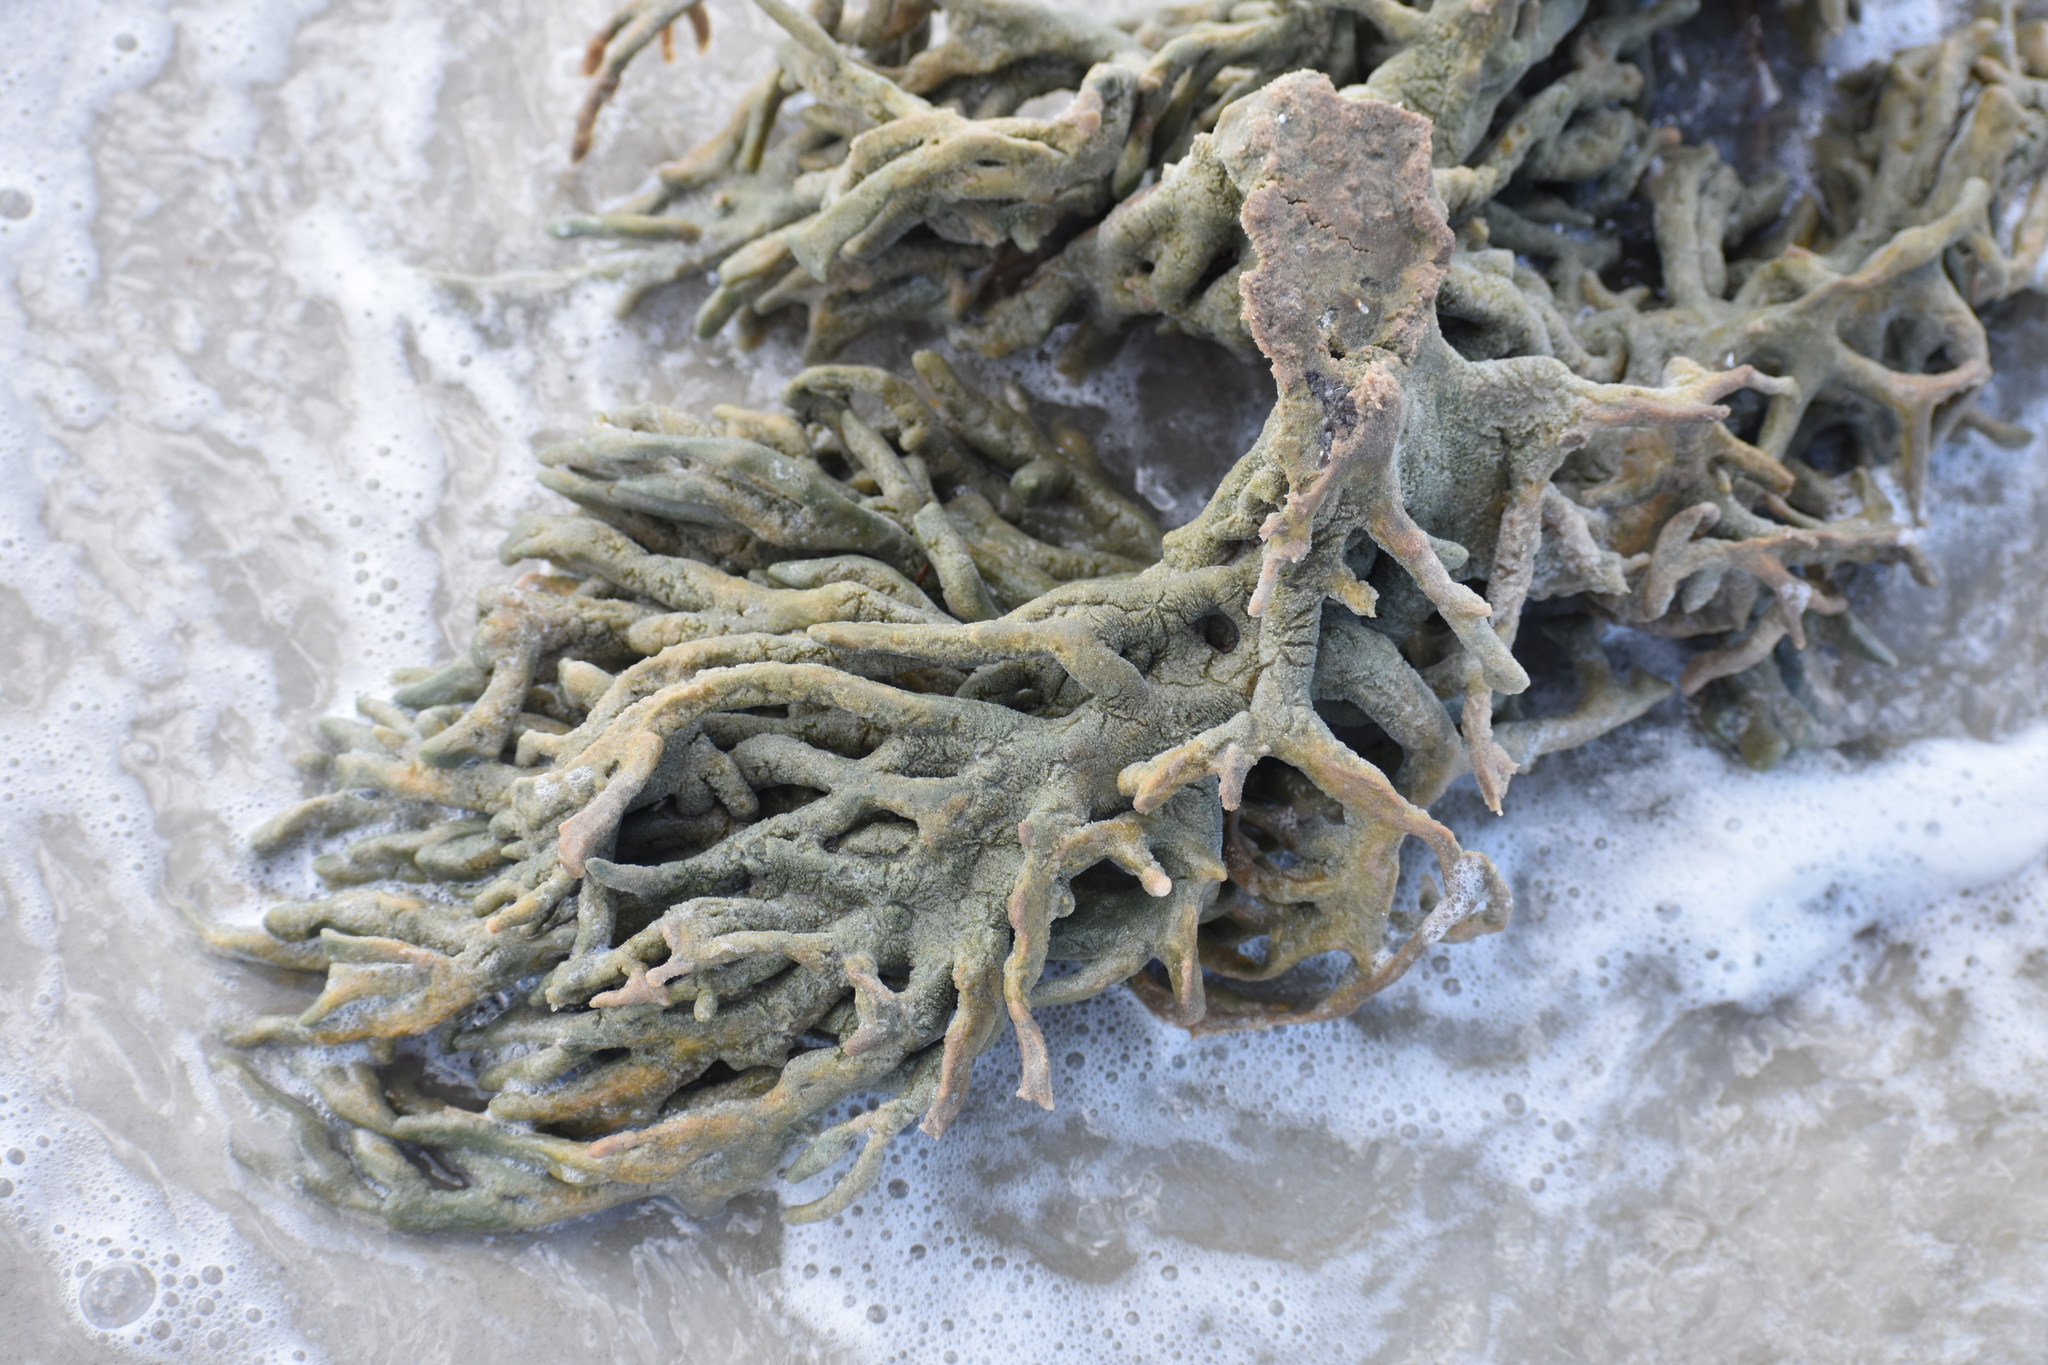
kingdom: Animalia
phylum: Porifera
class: Demospongiae
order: Haplosclerida
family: Chalinidae
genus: Haliclona
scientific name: Haliclona oculata
